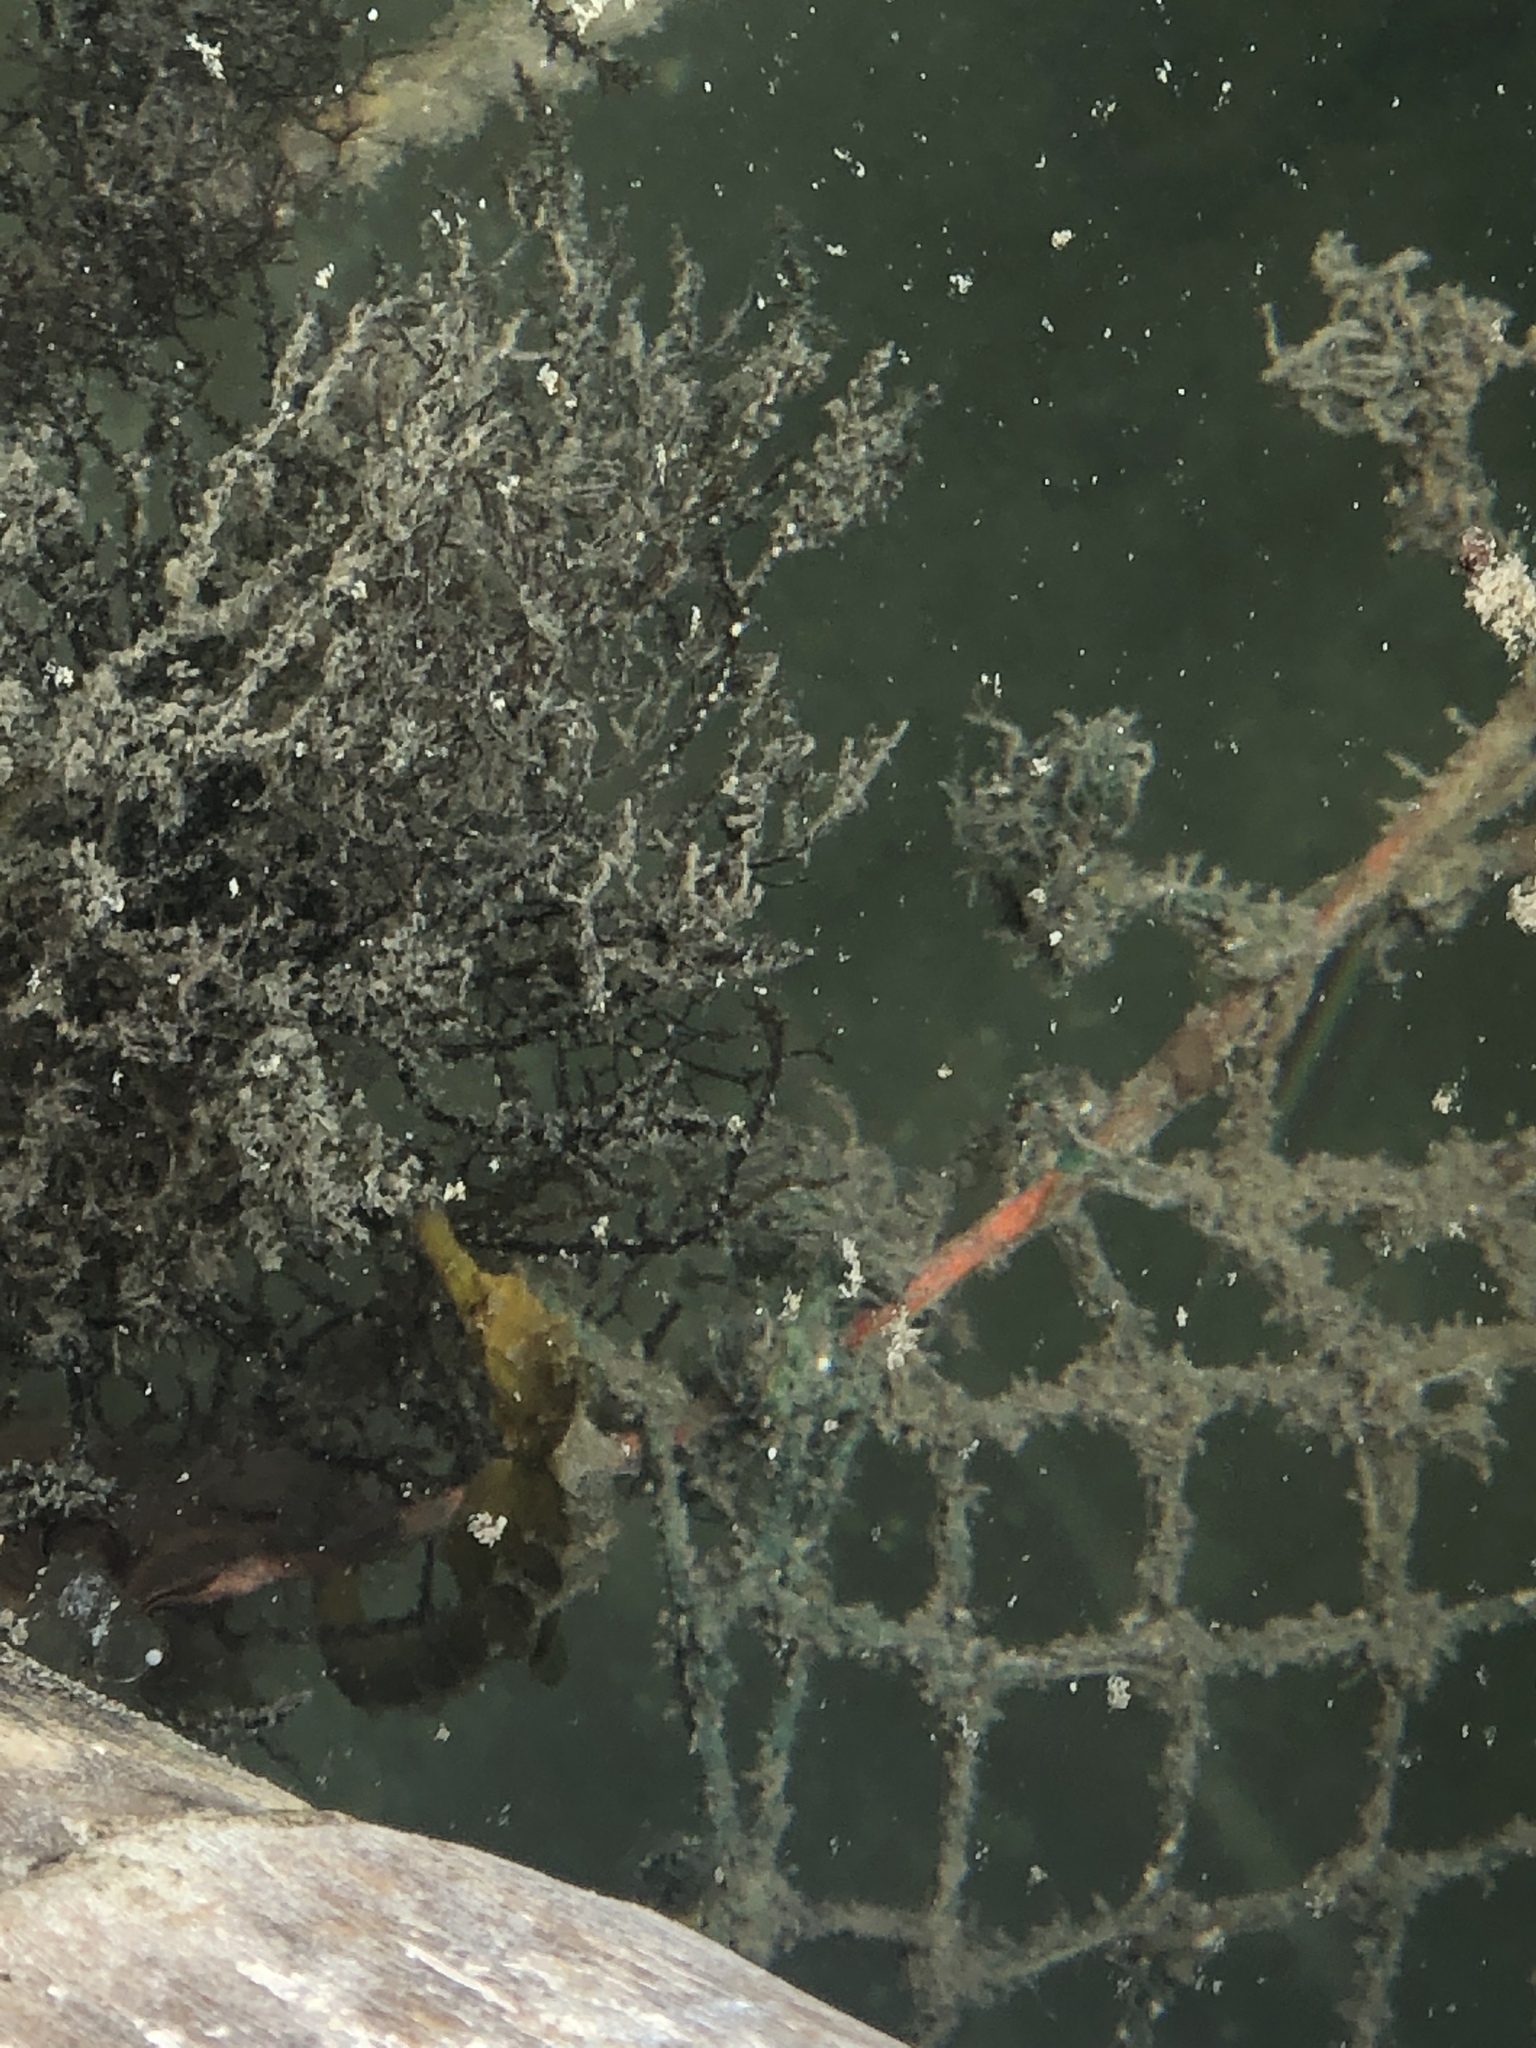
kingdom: Animalia
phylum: Chordata
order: Syngnathiformes
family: Syngnathidae
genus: Hippocampus
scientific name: Hippocampus reidi
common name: Slender seahorse
